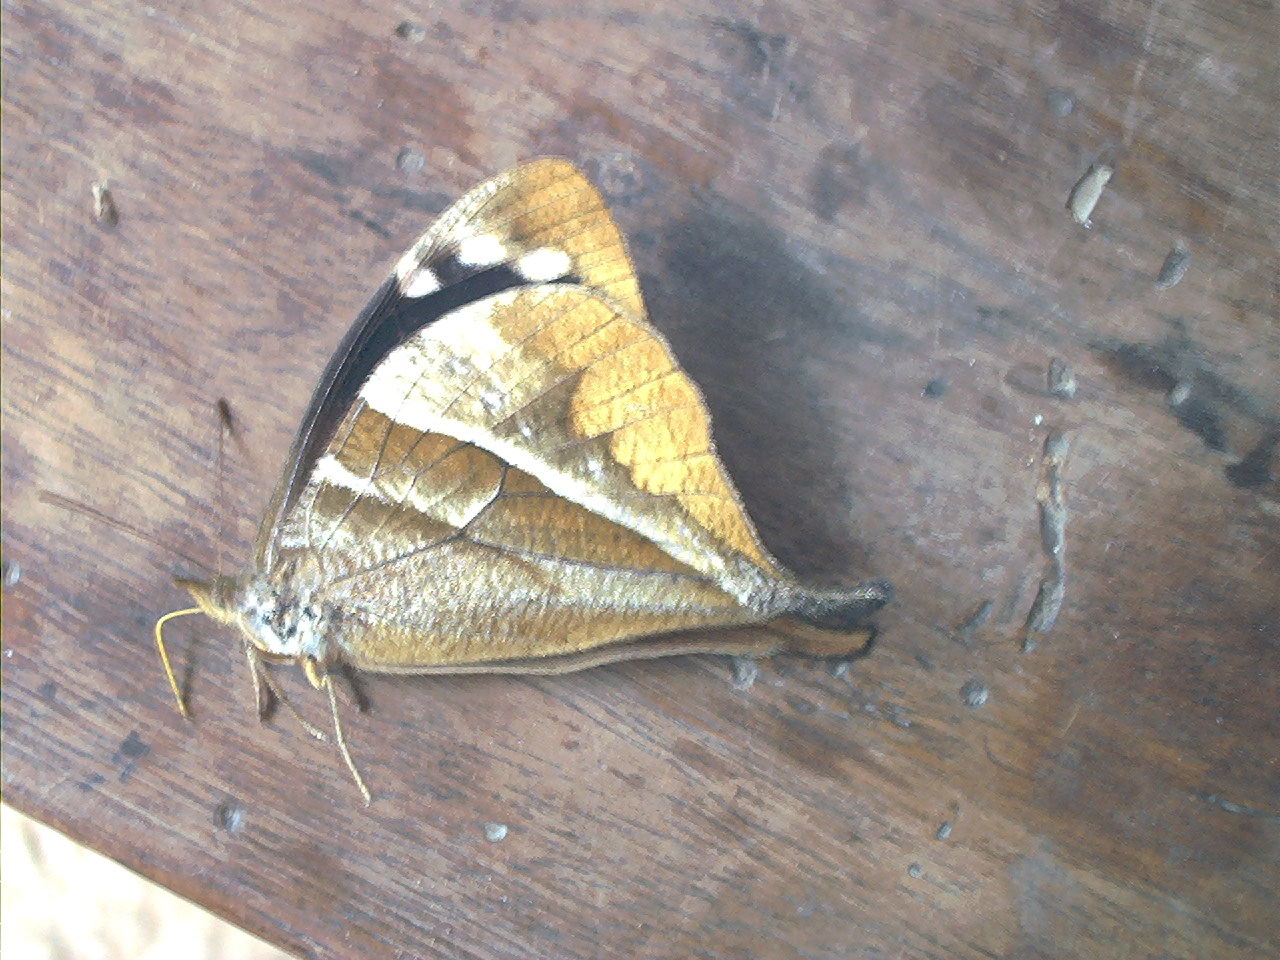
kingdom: Animalia
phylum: Arthropoda
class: Insecta
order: Lepidoptera
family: Nymphalidae
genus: Corades
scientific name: Corades enyo
